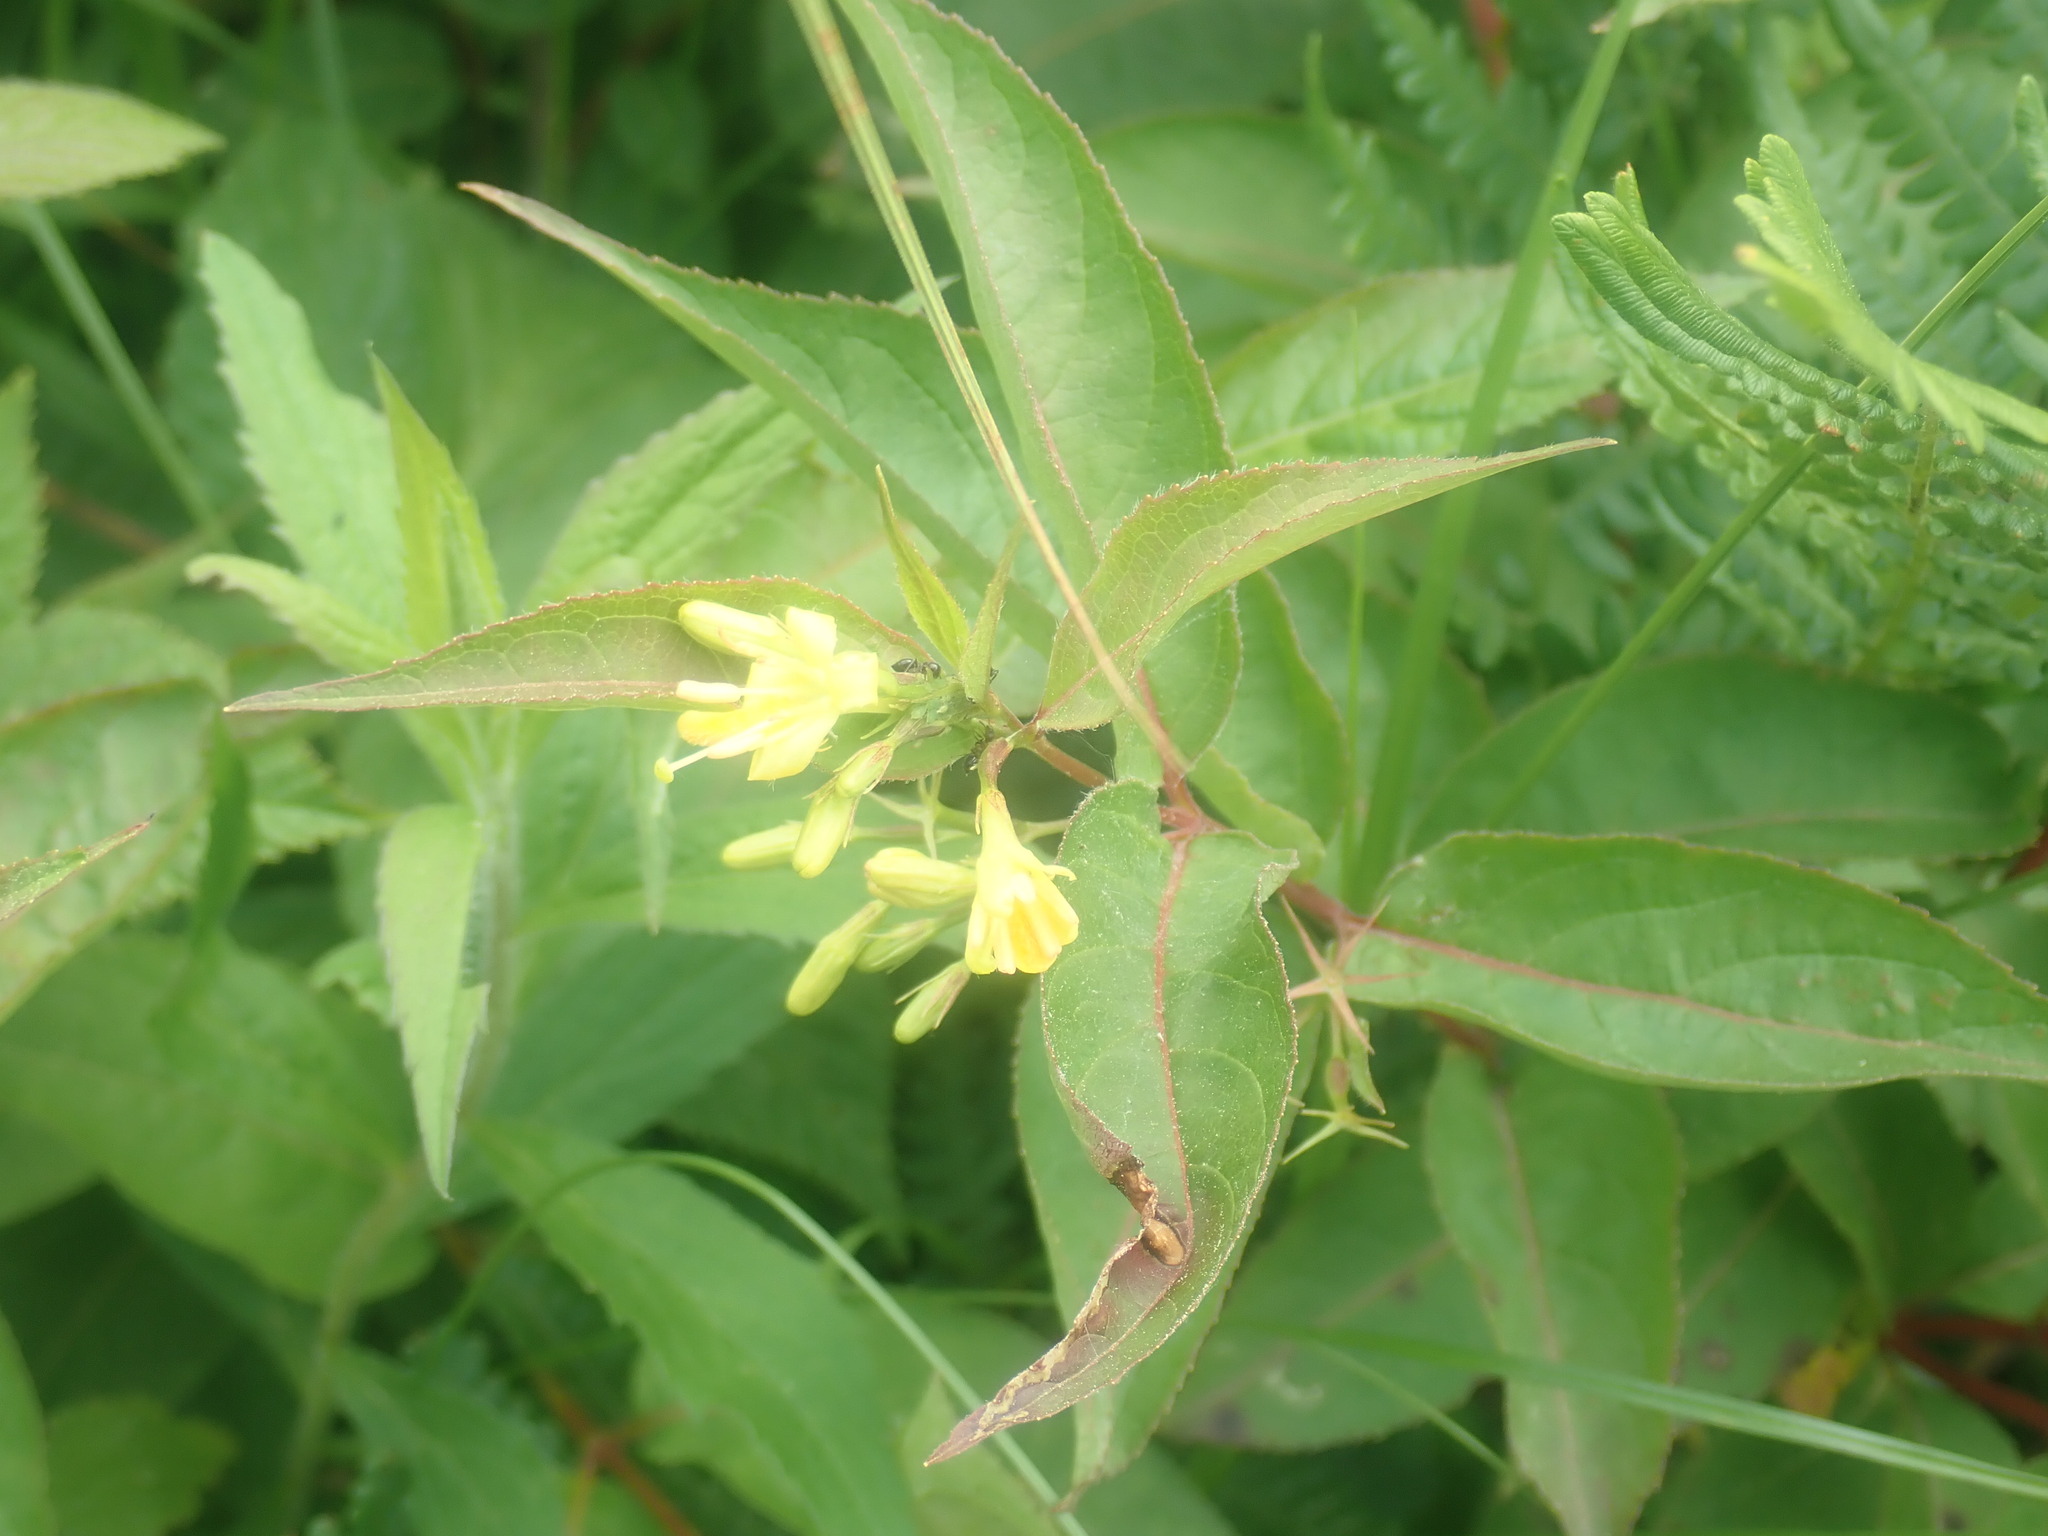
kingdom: Plantae
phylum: Tracheophyta
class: Magnoliopsida
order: Dipsacales
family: Caprifoliaceae
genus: Diervilla
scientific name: Diervilla lonicera
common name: Bush-honeysuckle
